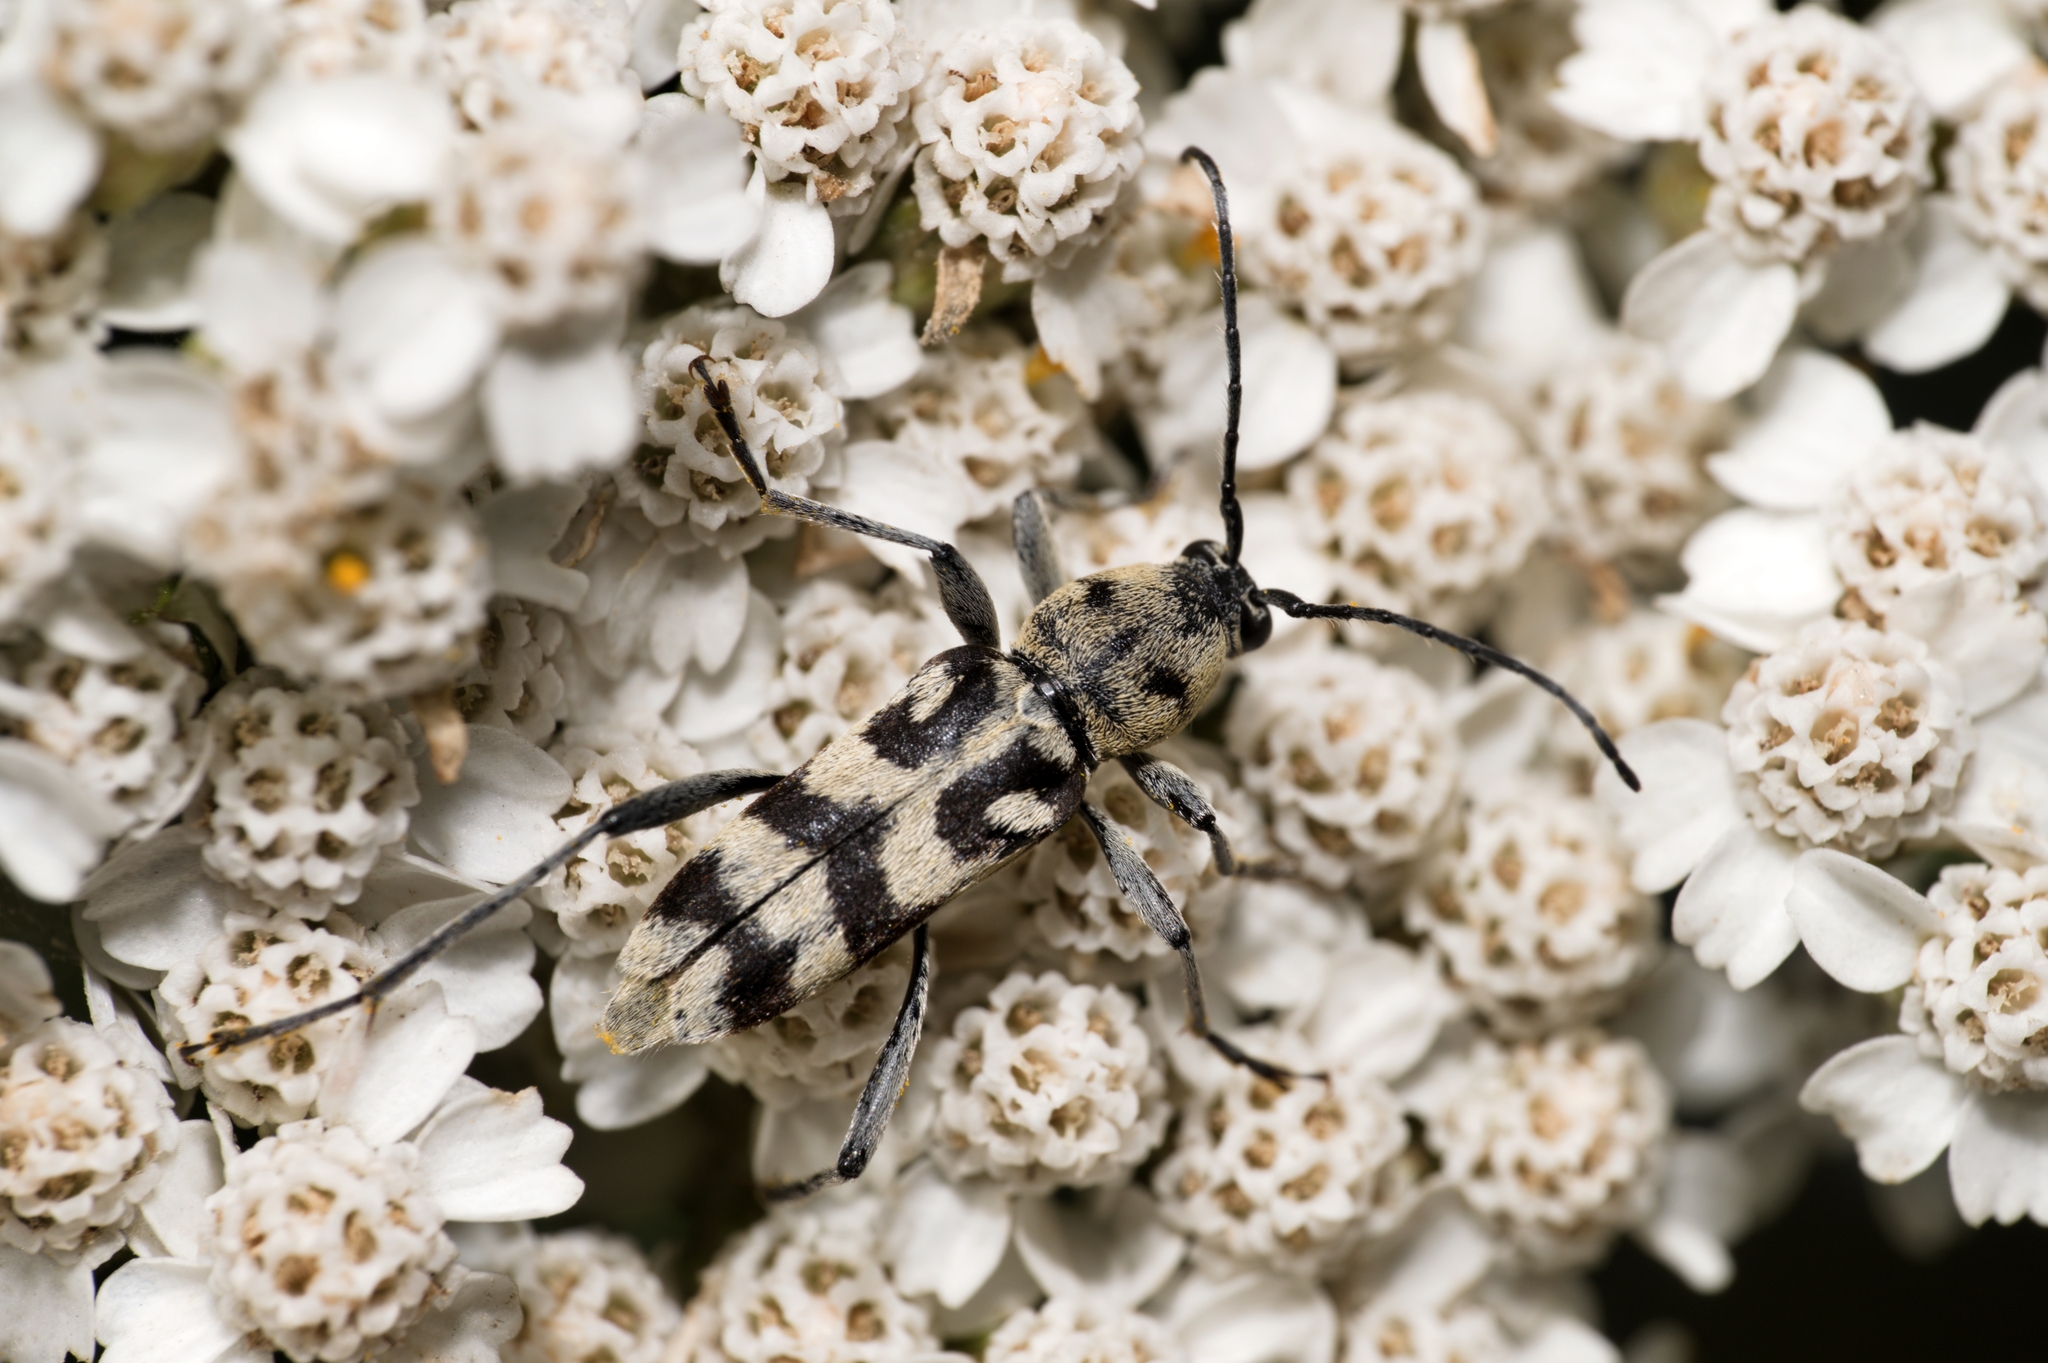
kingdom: Animalia
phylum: Arthropoda
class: Insecta
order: Coleoptera
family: Cerambycidae
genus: Chlorophorus
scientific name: Chlorophorus varius
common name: Grape wood borer
